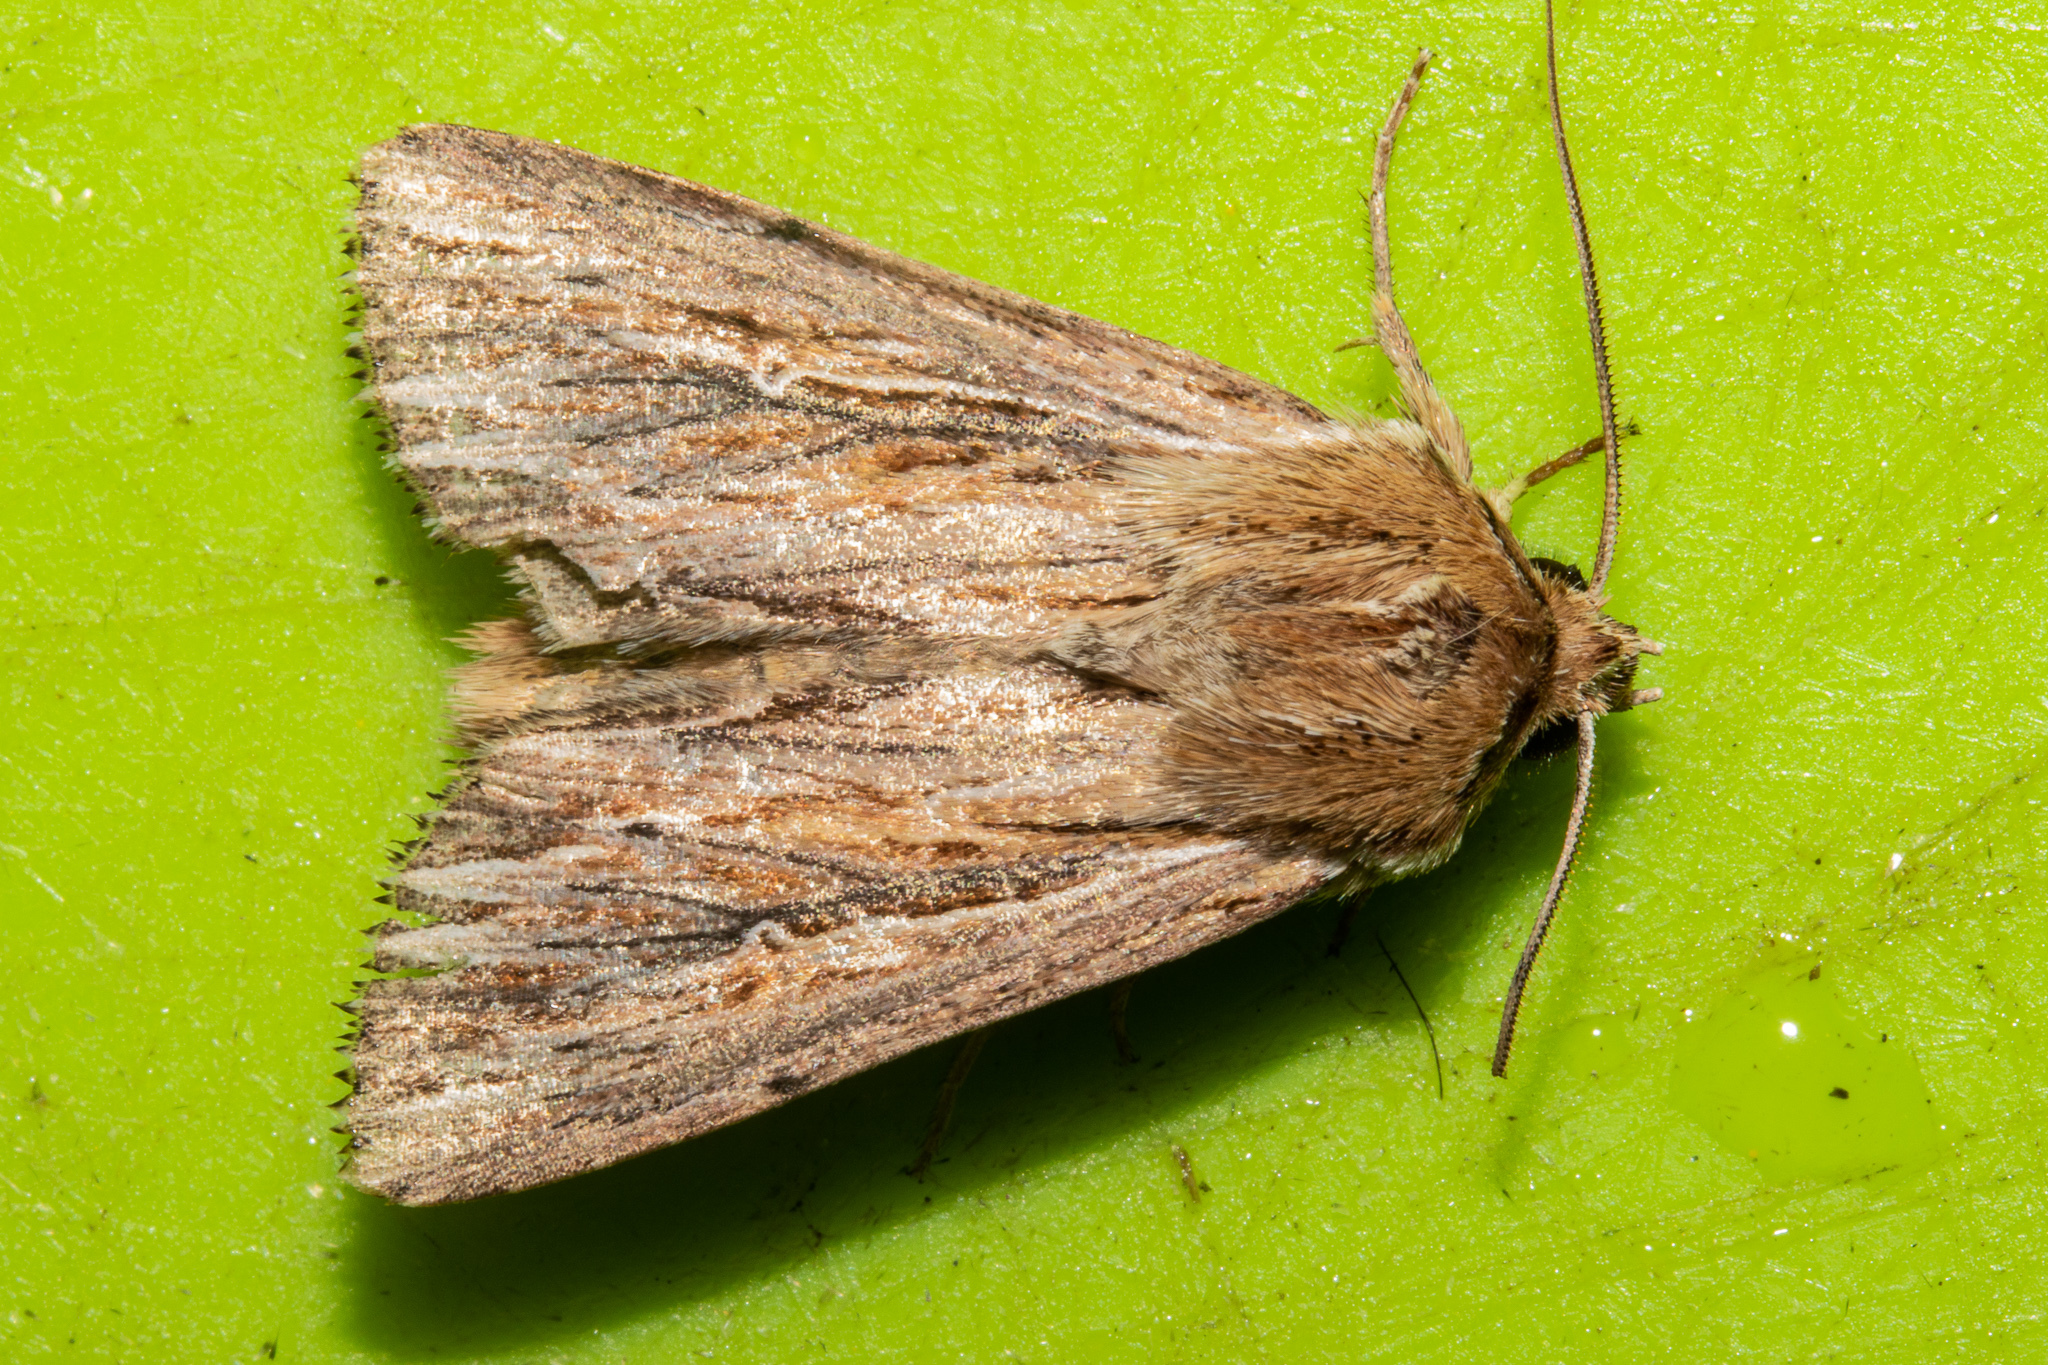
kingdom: Animalia
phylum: Arthropoda
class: Insecta
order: Lepidoptera
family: Noctuidae
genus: Persectania
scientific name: Persectania aversa
